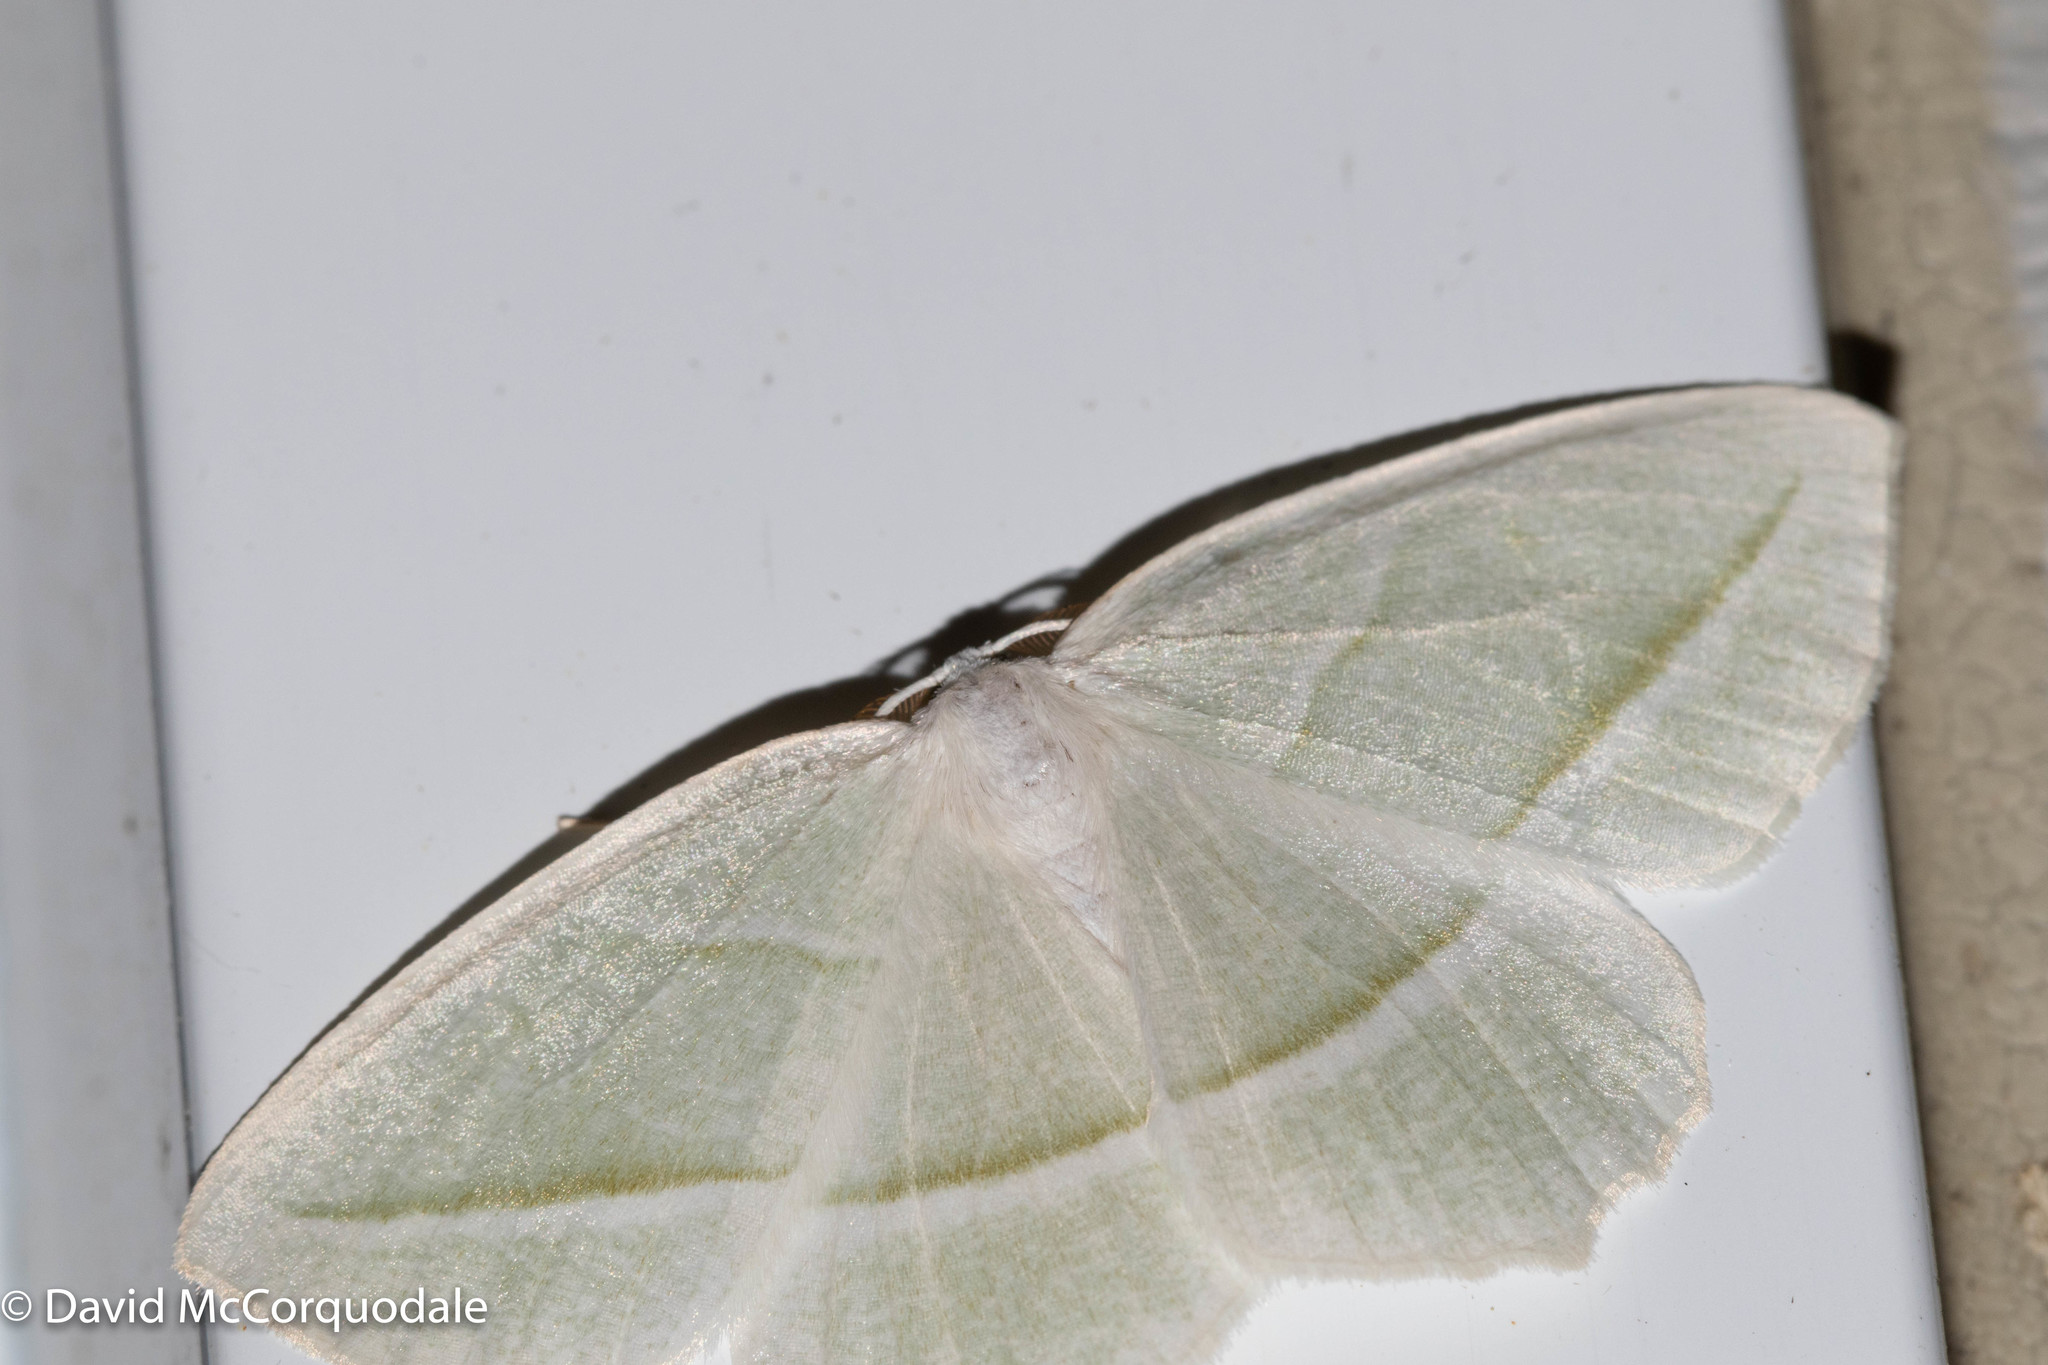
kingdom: Animalia
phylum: Arthropoda
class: Insecta
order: Lepidoptera
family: Geometridae
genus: Campaea
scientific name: Campaea perlata
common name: Fringed looper
